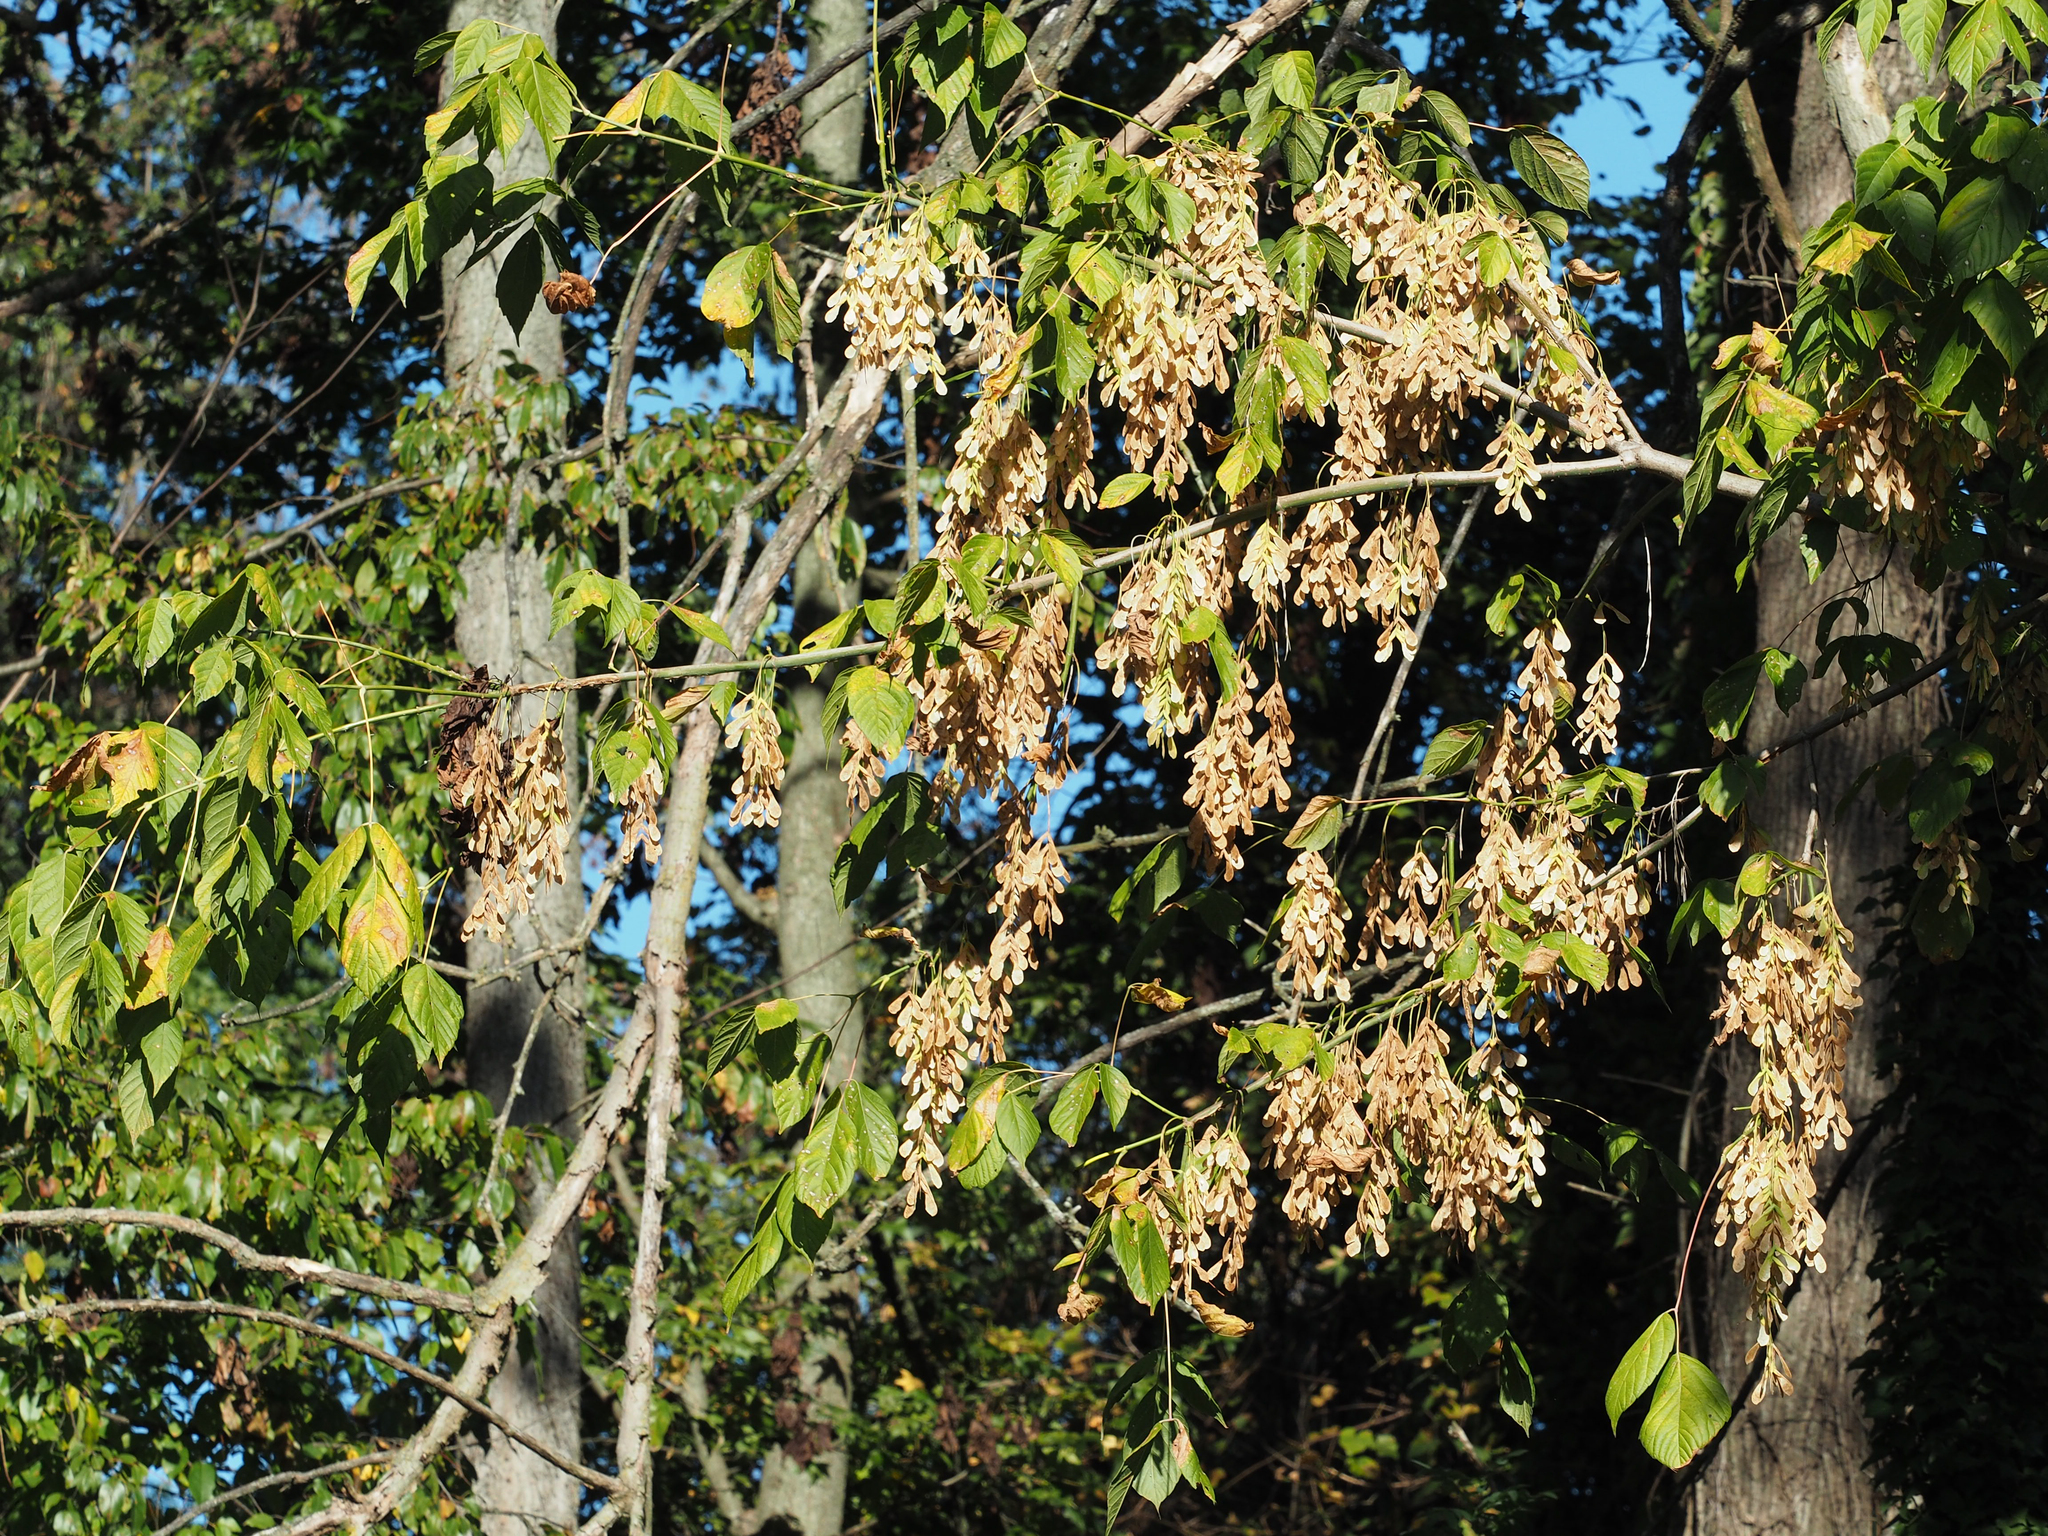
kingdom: Plantae
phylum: Tracheophyta
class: Magnoliopsida
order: Sapindales
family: Sapindaceae
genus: Acer
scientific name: Acer negundo
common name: Ashleaf maple
